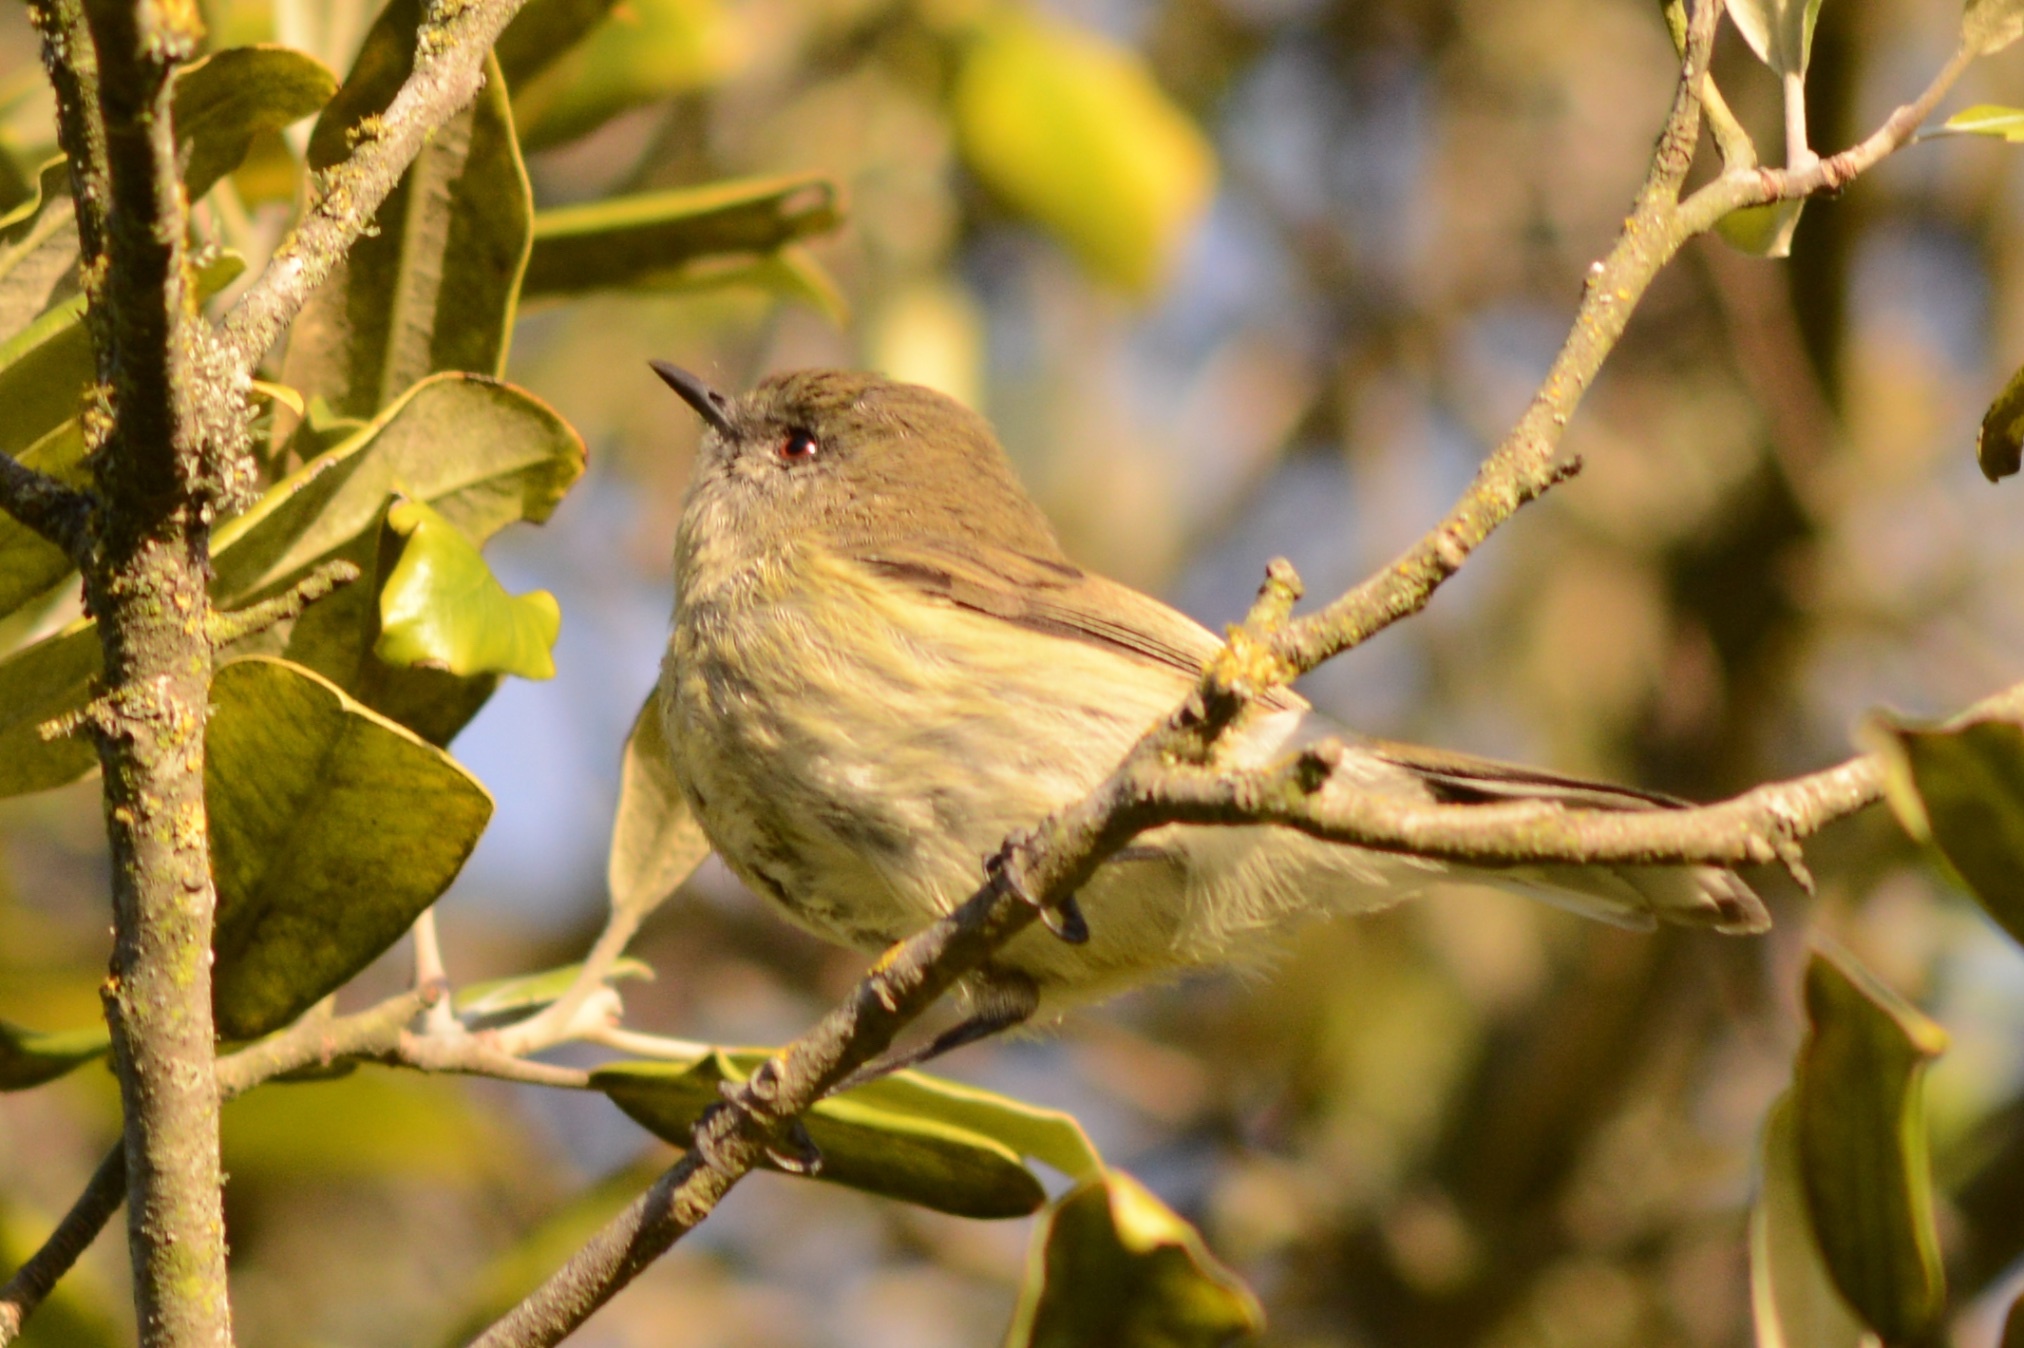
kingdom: Animalia
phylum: Chordata
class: Aves
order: Passeriformes
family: Acanthizidae
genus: Gerygone
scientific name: Gerygone igata
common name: Grey gerygone
